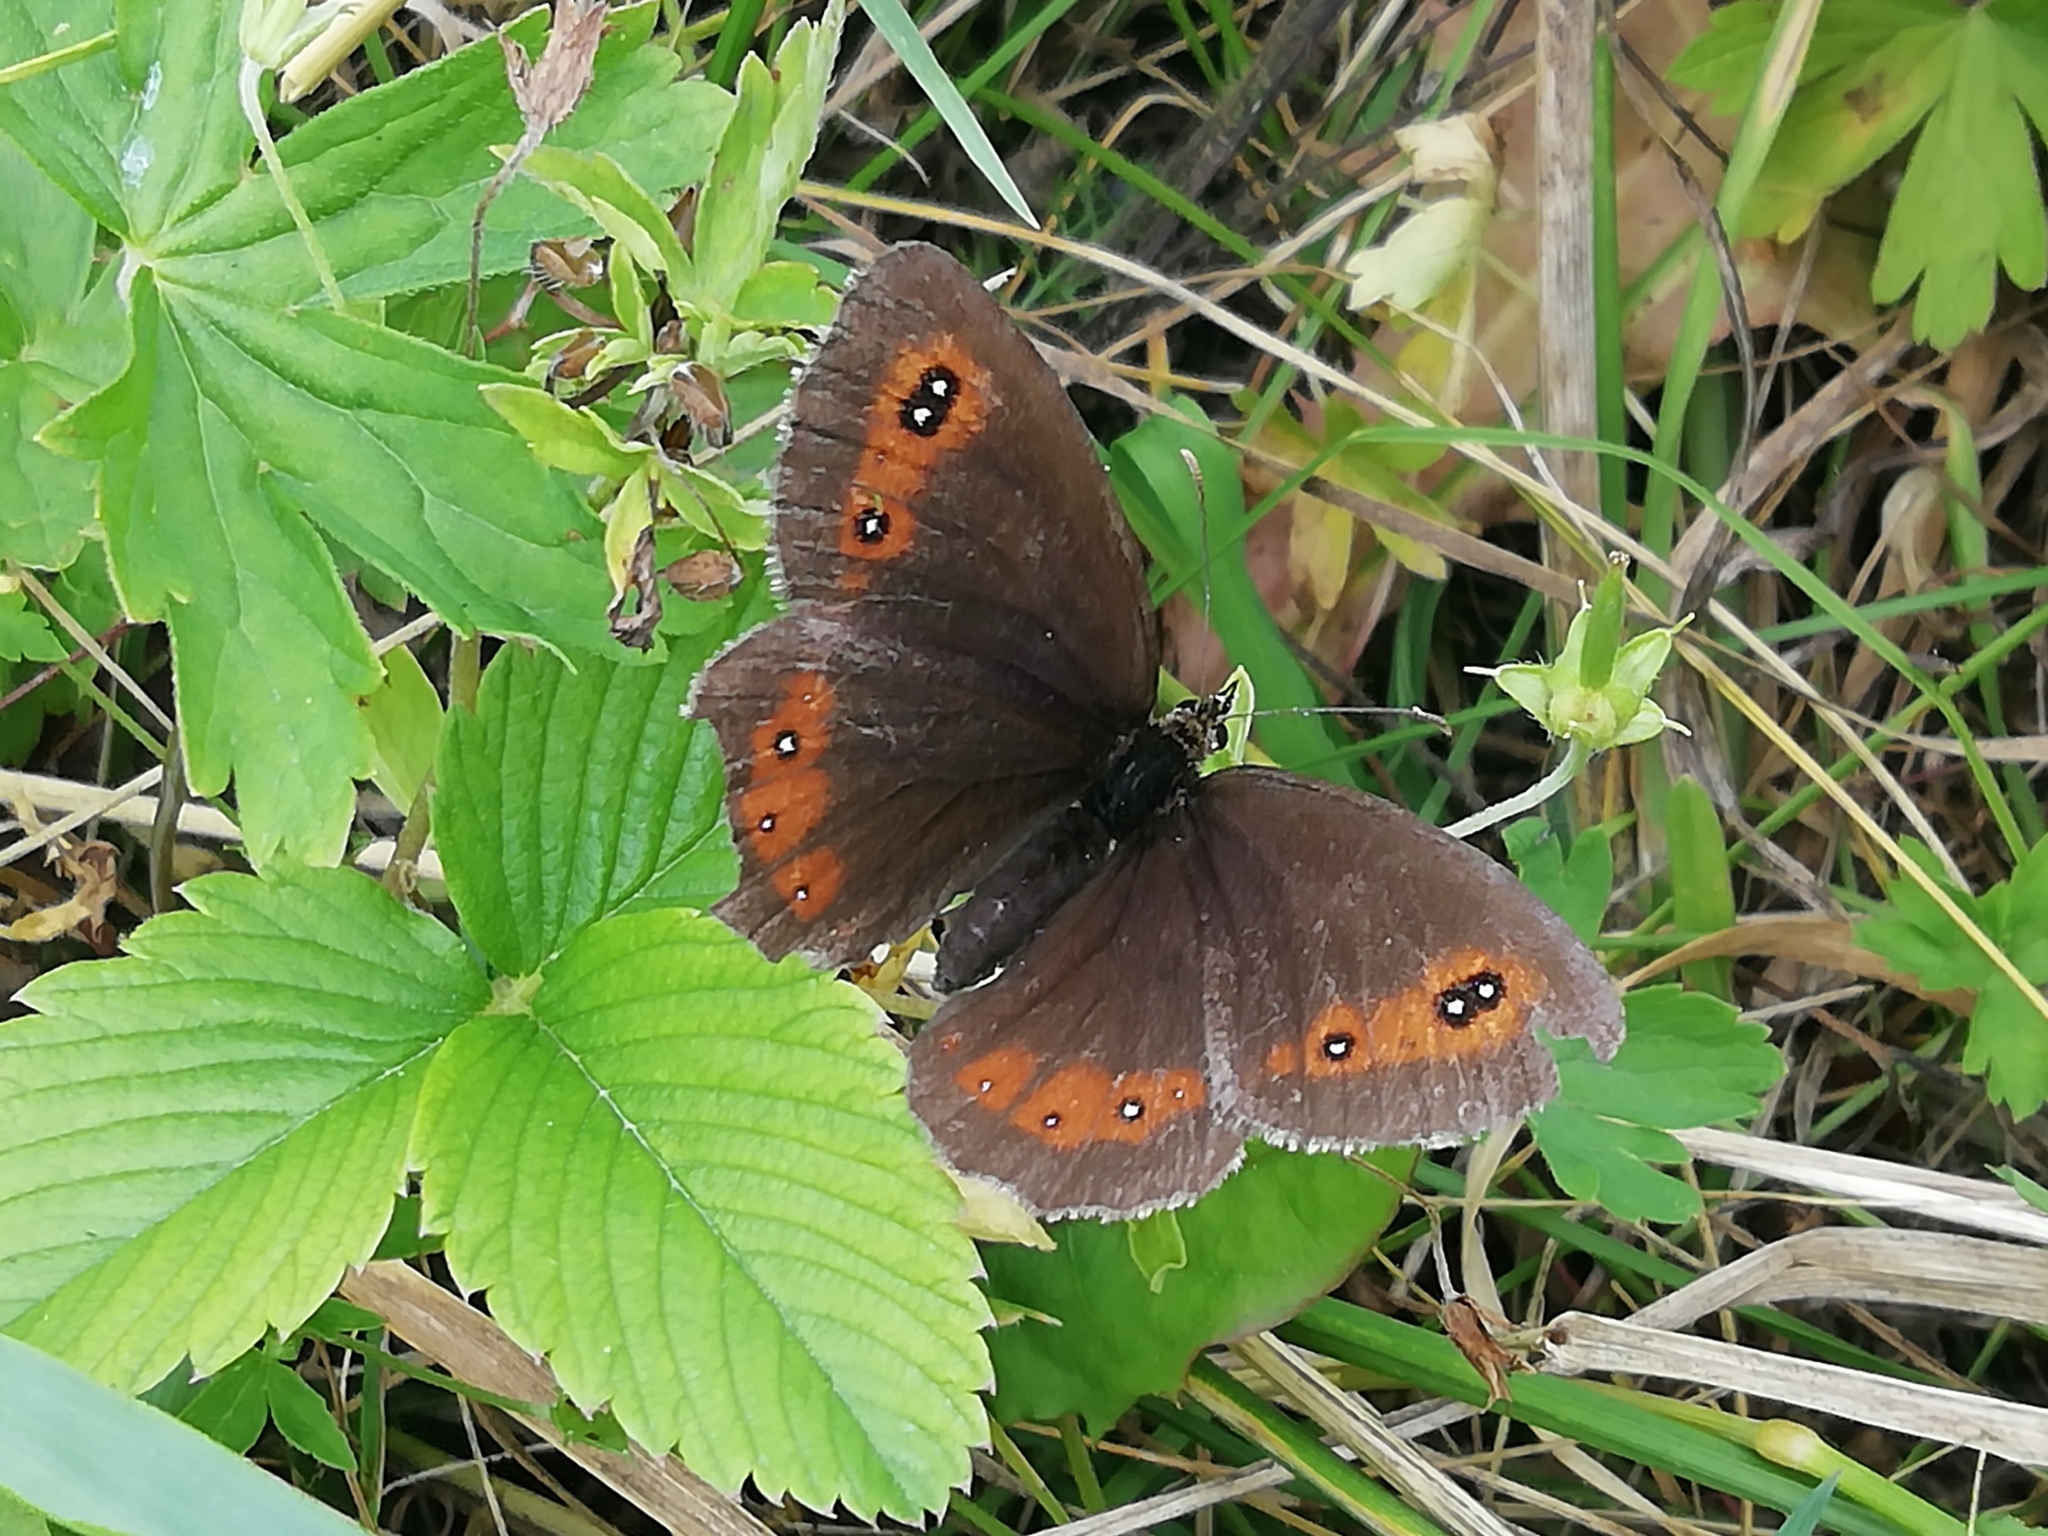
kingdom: Animalia
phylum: Arthropoda
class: Insecta
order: Lepidoptera
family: Nymphalidae
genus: Erebia
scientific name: Erebia aethiops
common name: Scotch argus
